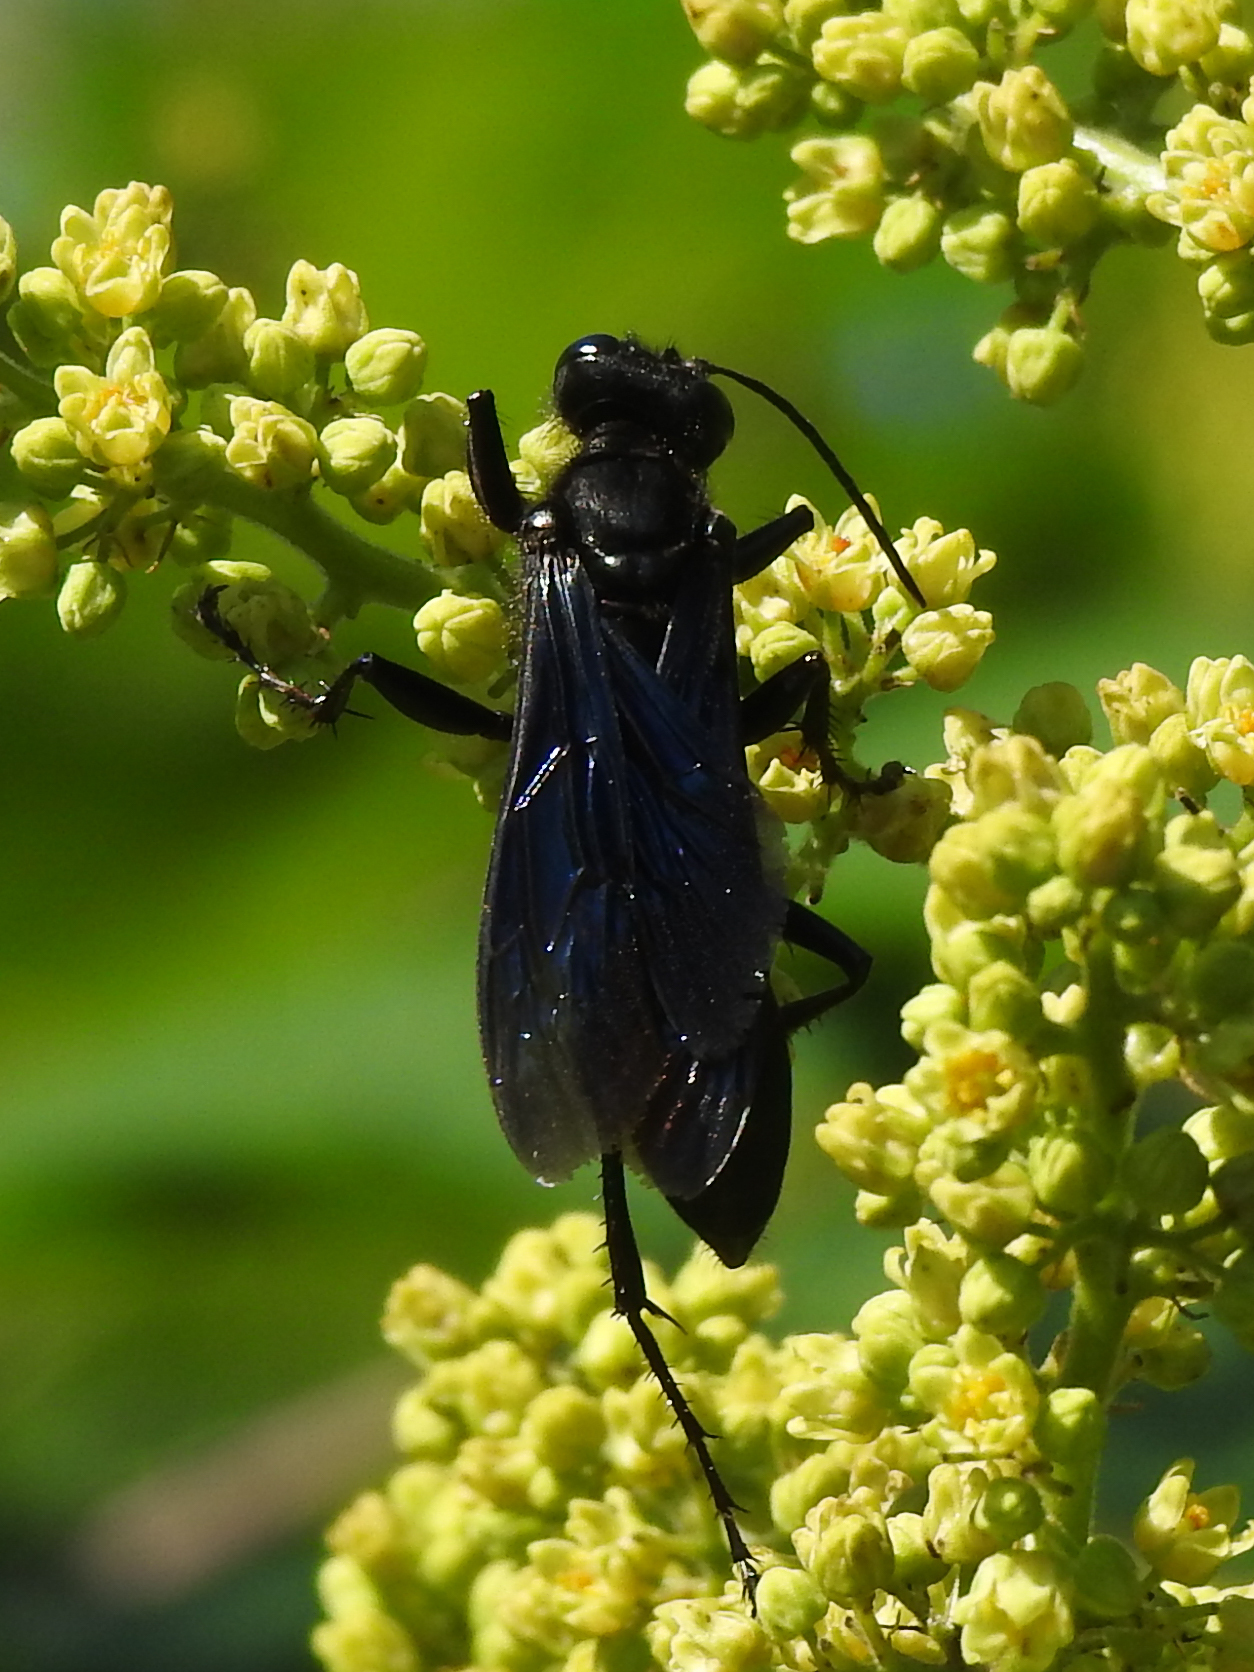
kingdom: Animalia
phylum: Arthropoda
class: Insecta
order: Hymenoptera
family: Sphecidae
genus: Sphex
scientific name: Sphex pensylvanicus
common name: Great black digger wasp
